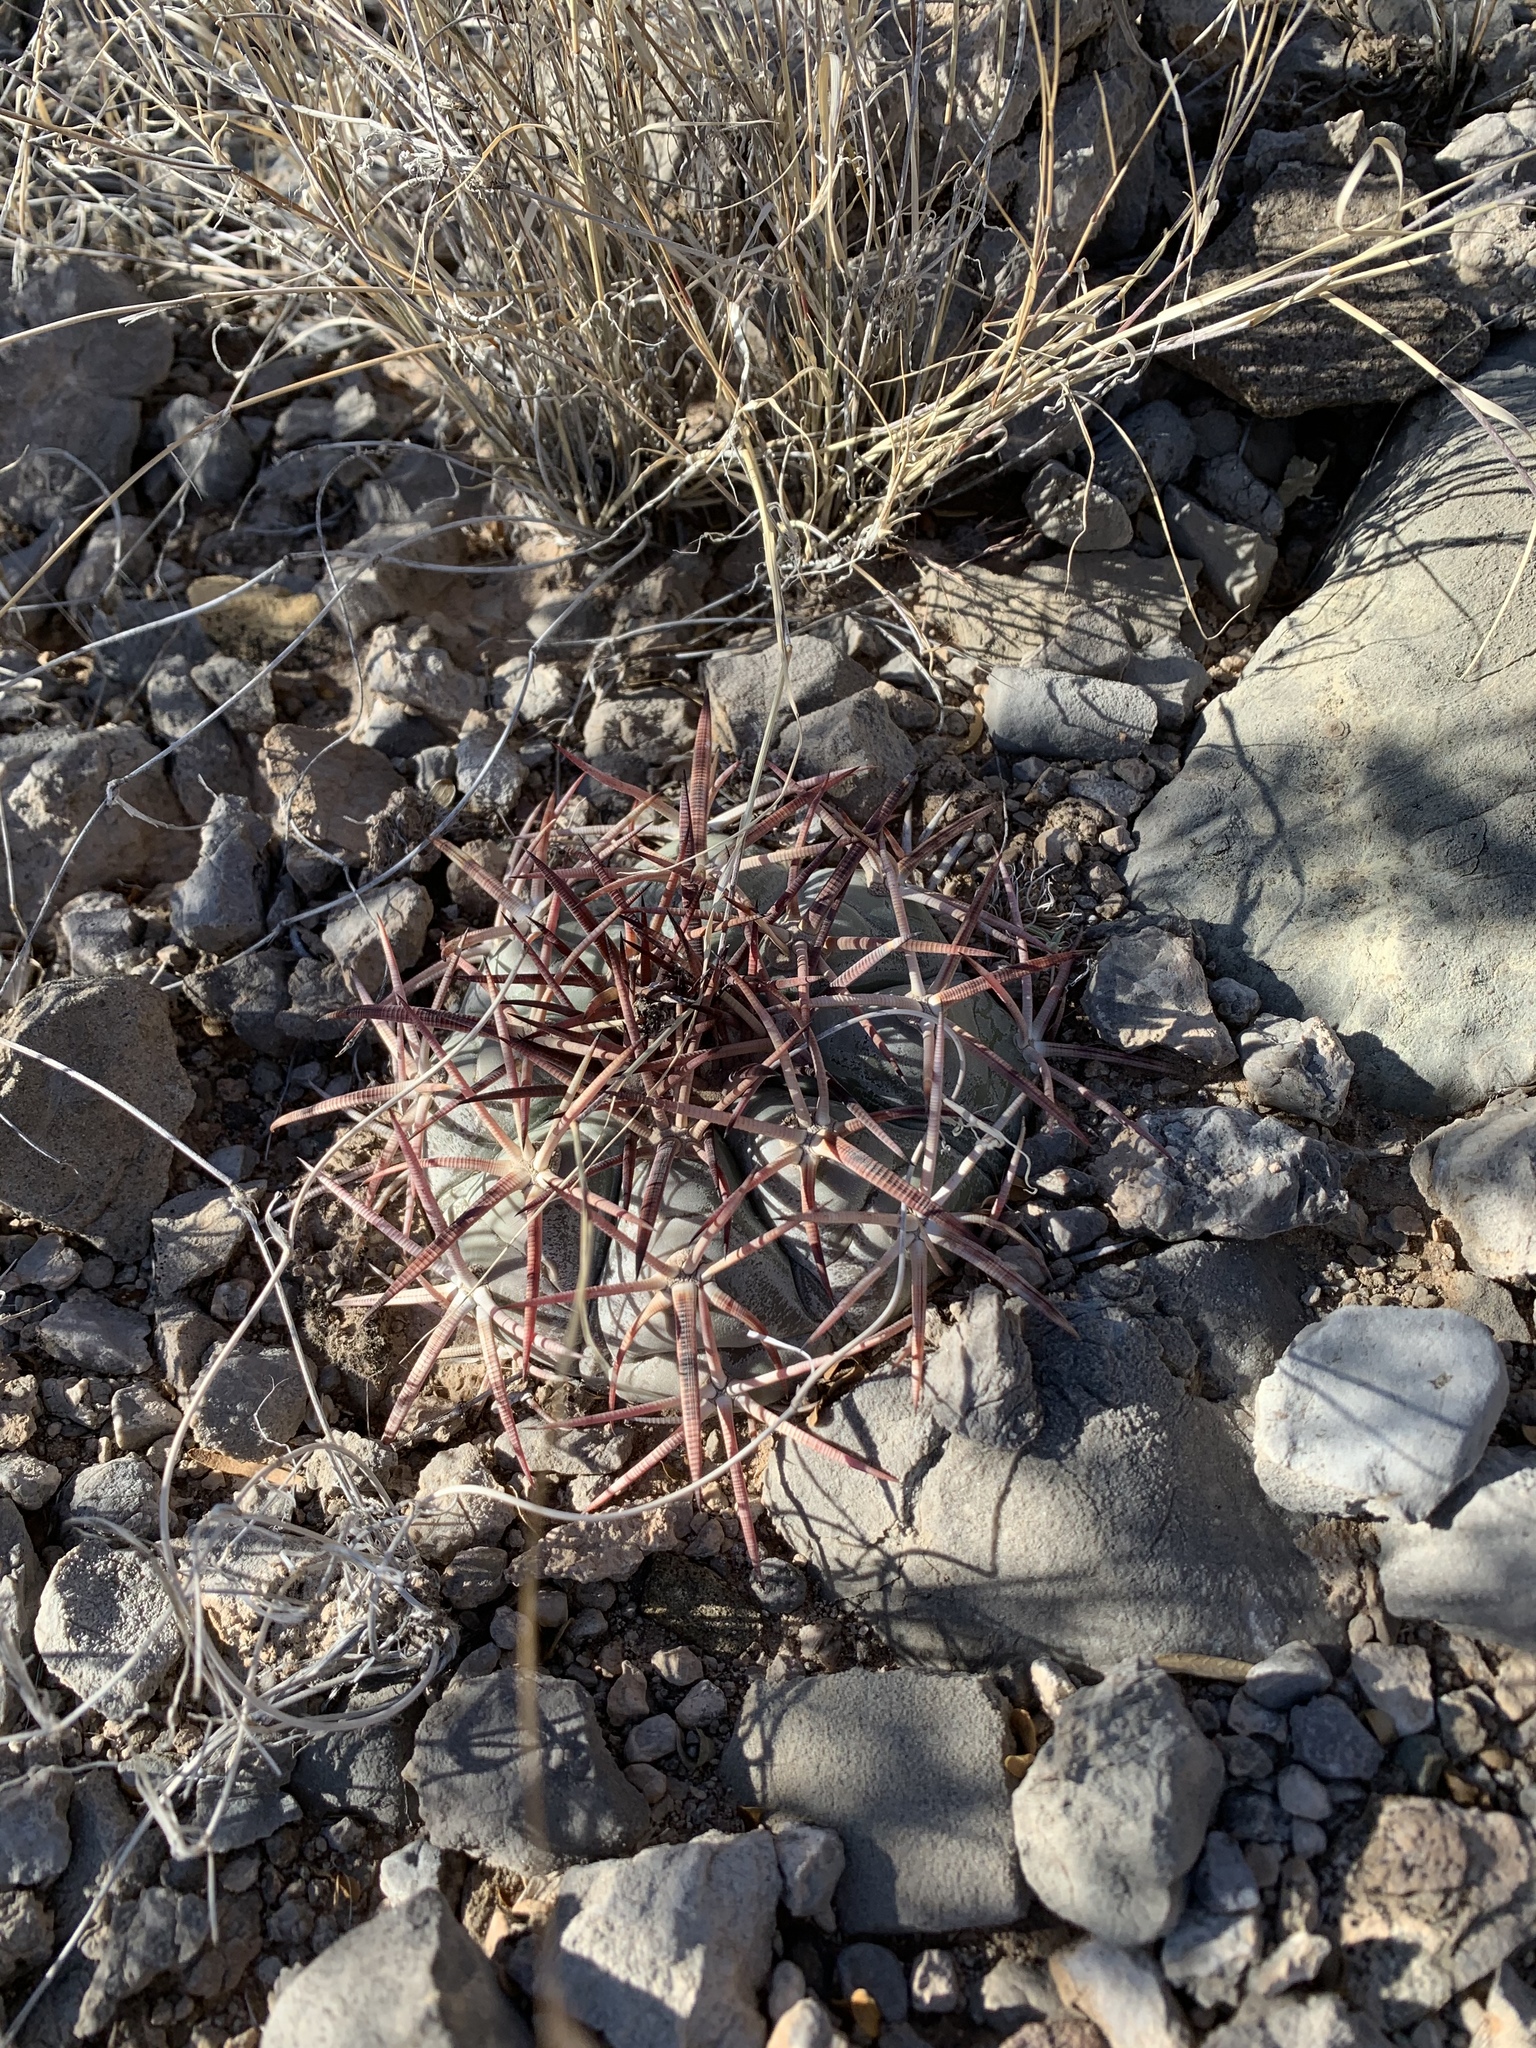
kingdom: Plantae
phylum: Tracheophyta
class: Magnoliopsida
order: Caryophyllales
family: Cactaceae
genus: Echinocactus
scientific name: Echinocactus horizonthalonius
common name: Devilshead
